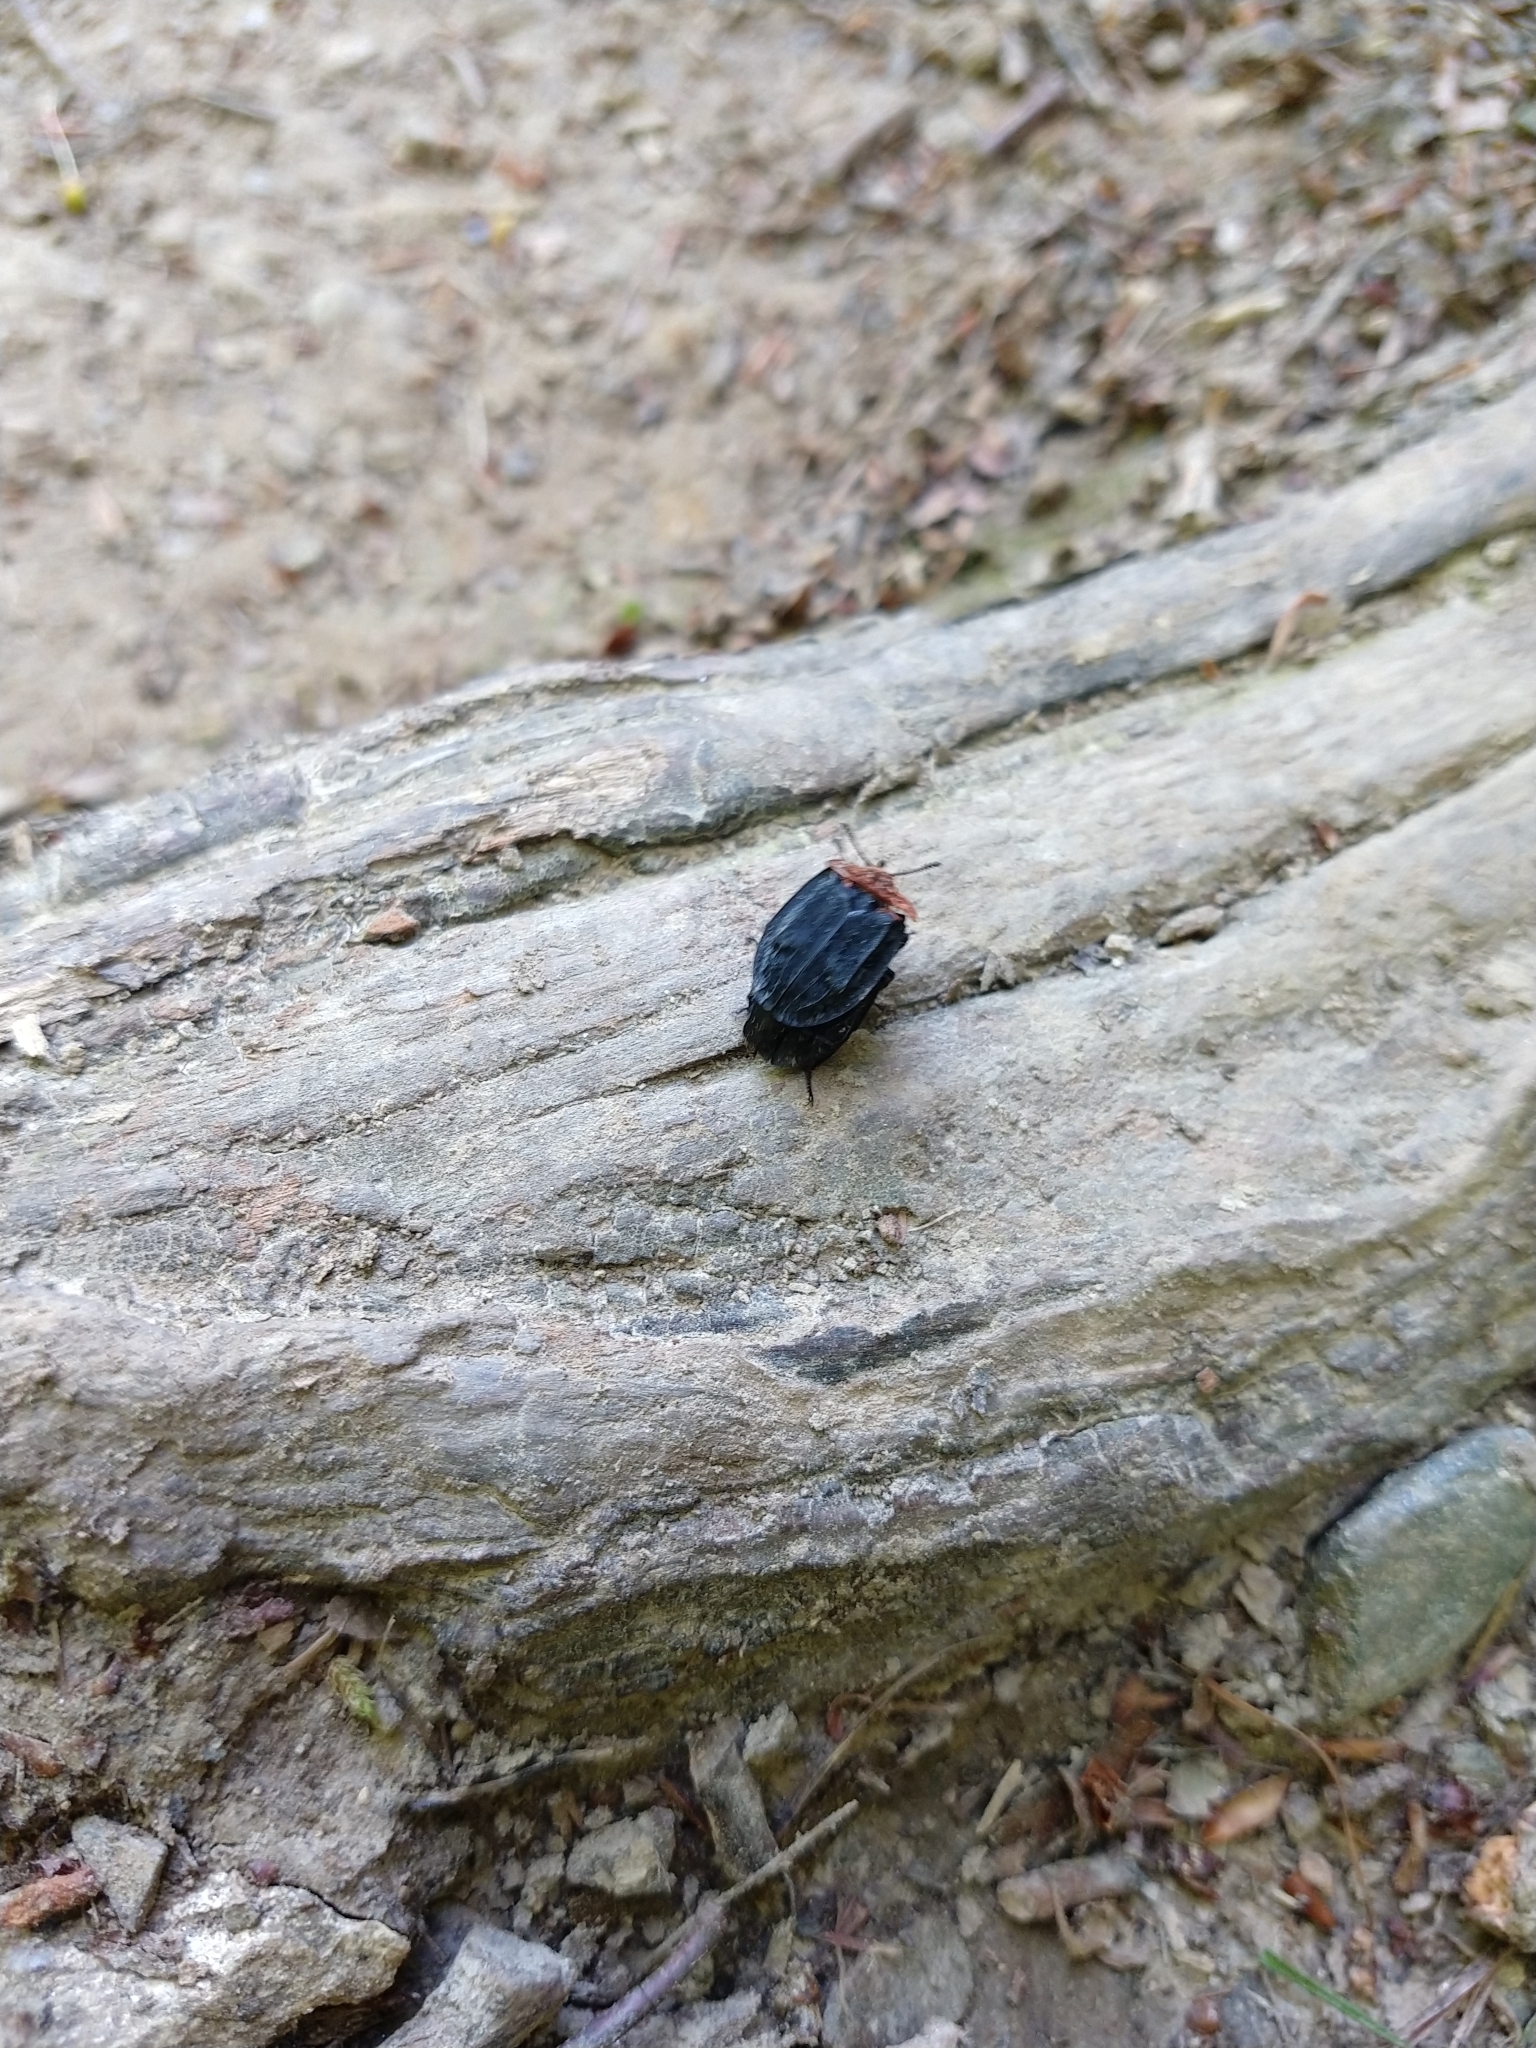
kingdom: Animalia
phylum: Arthropoda
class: Insecta
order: Coleoptera
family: Staphylinidae
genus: Oiceoptoma
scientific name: Oiceoptoma thoracicum
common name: Red-breasted carrion beetle
